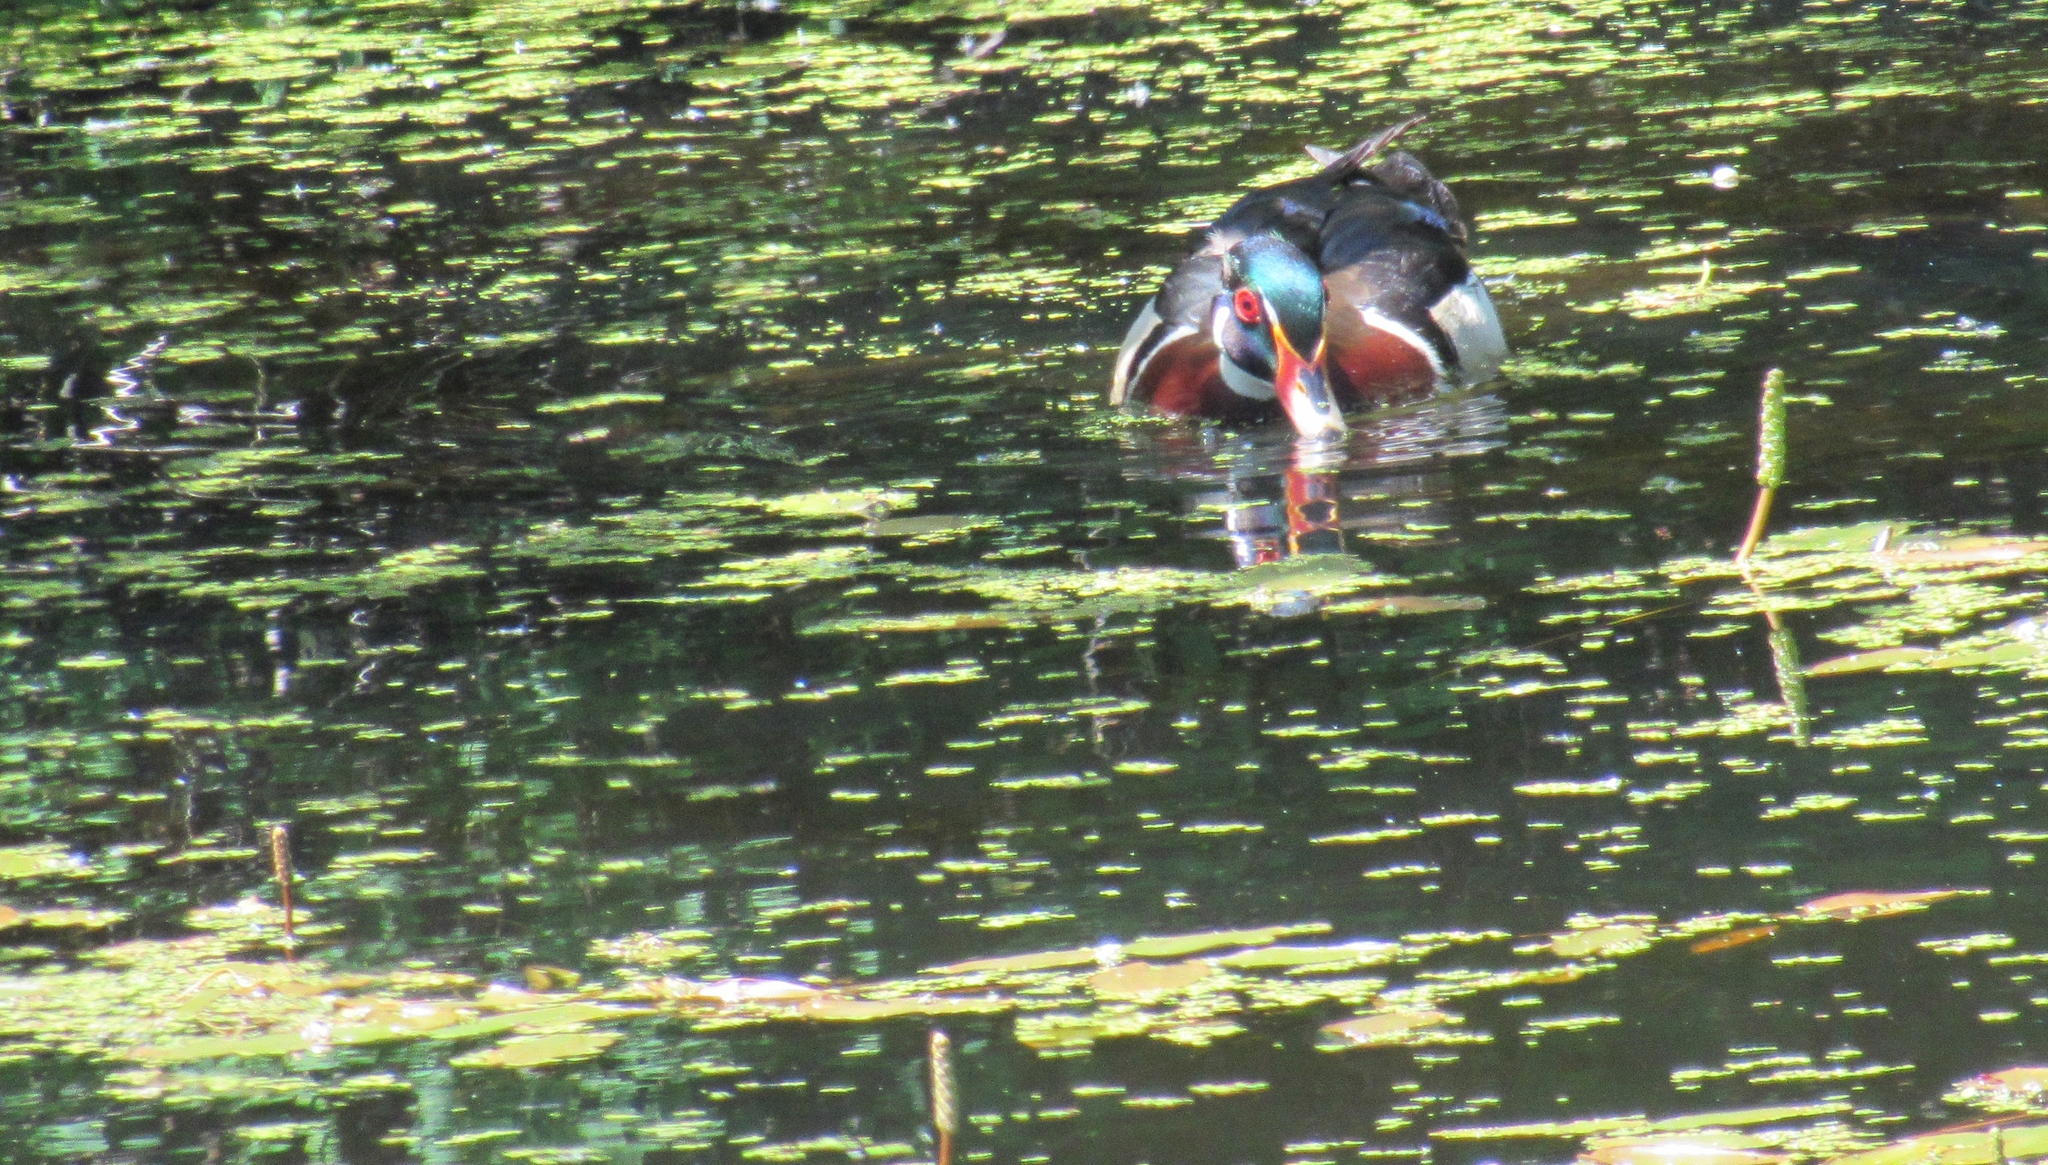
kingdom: Animalia
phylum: Chordata
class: Aves
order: Anseriformes
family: Anatidae
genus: Aix
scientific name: Aix sponsa
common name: Wood duck
